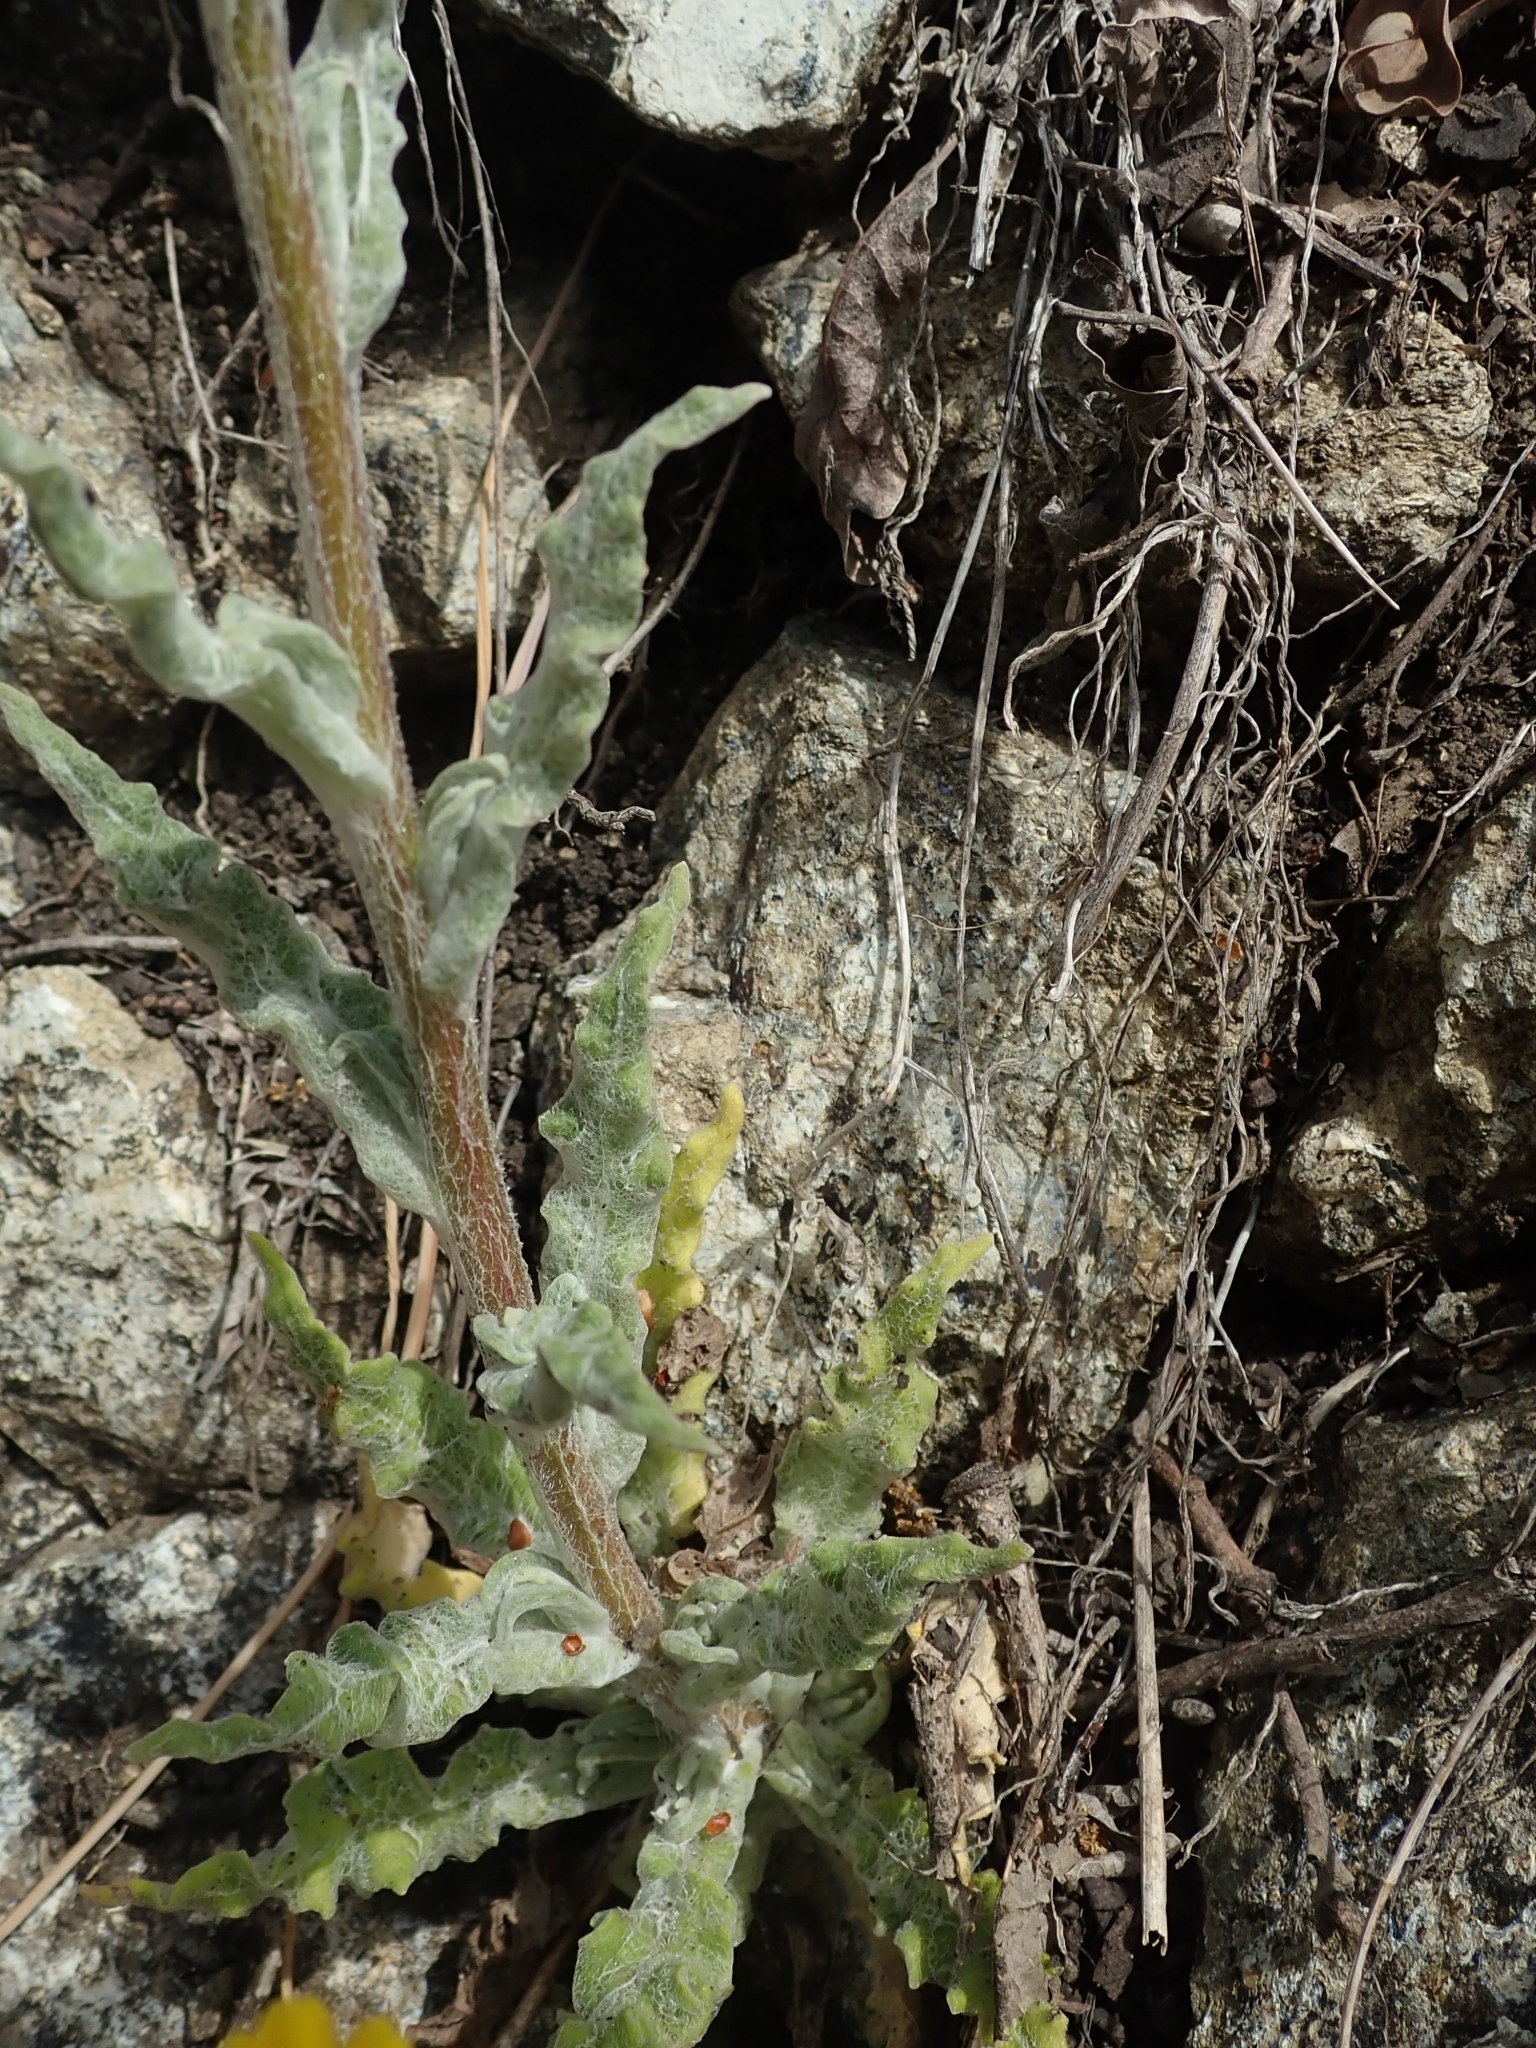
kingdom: Plantae
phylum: Tracheophyta
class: Magnoliopsida
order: Asterales
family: Asteraceae
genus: Monolopia
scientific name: Monolopia gracilens
